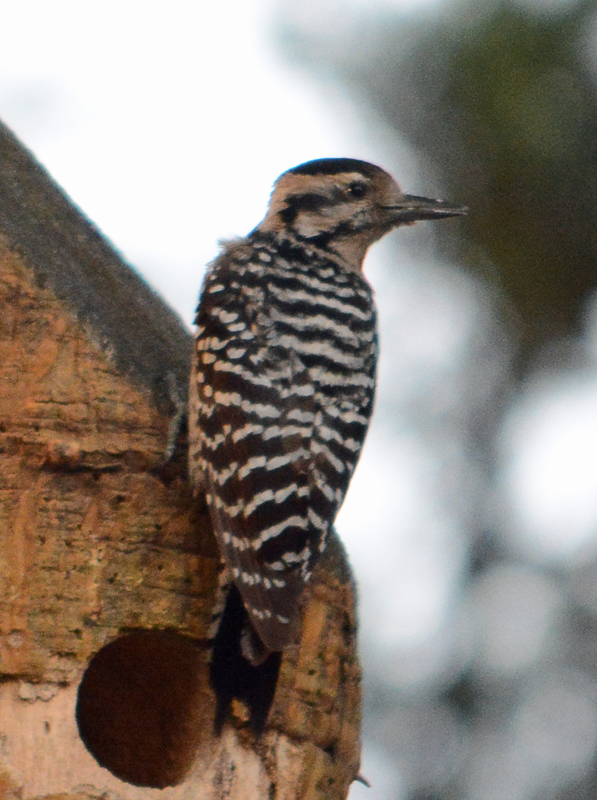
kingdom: Animalia
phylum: Chordata
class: Aves
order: Piciformes
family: Picidae
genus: Dryobates
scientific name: Dryobates scalaris
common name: Ladder-backed woodpecker
